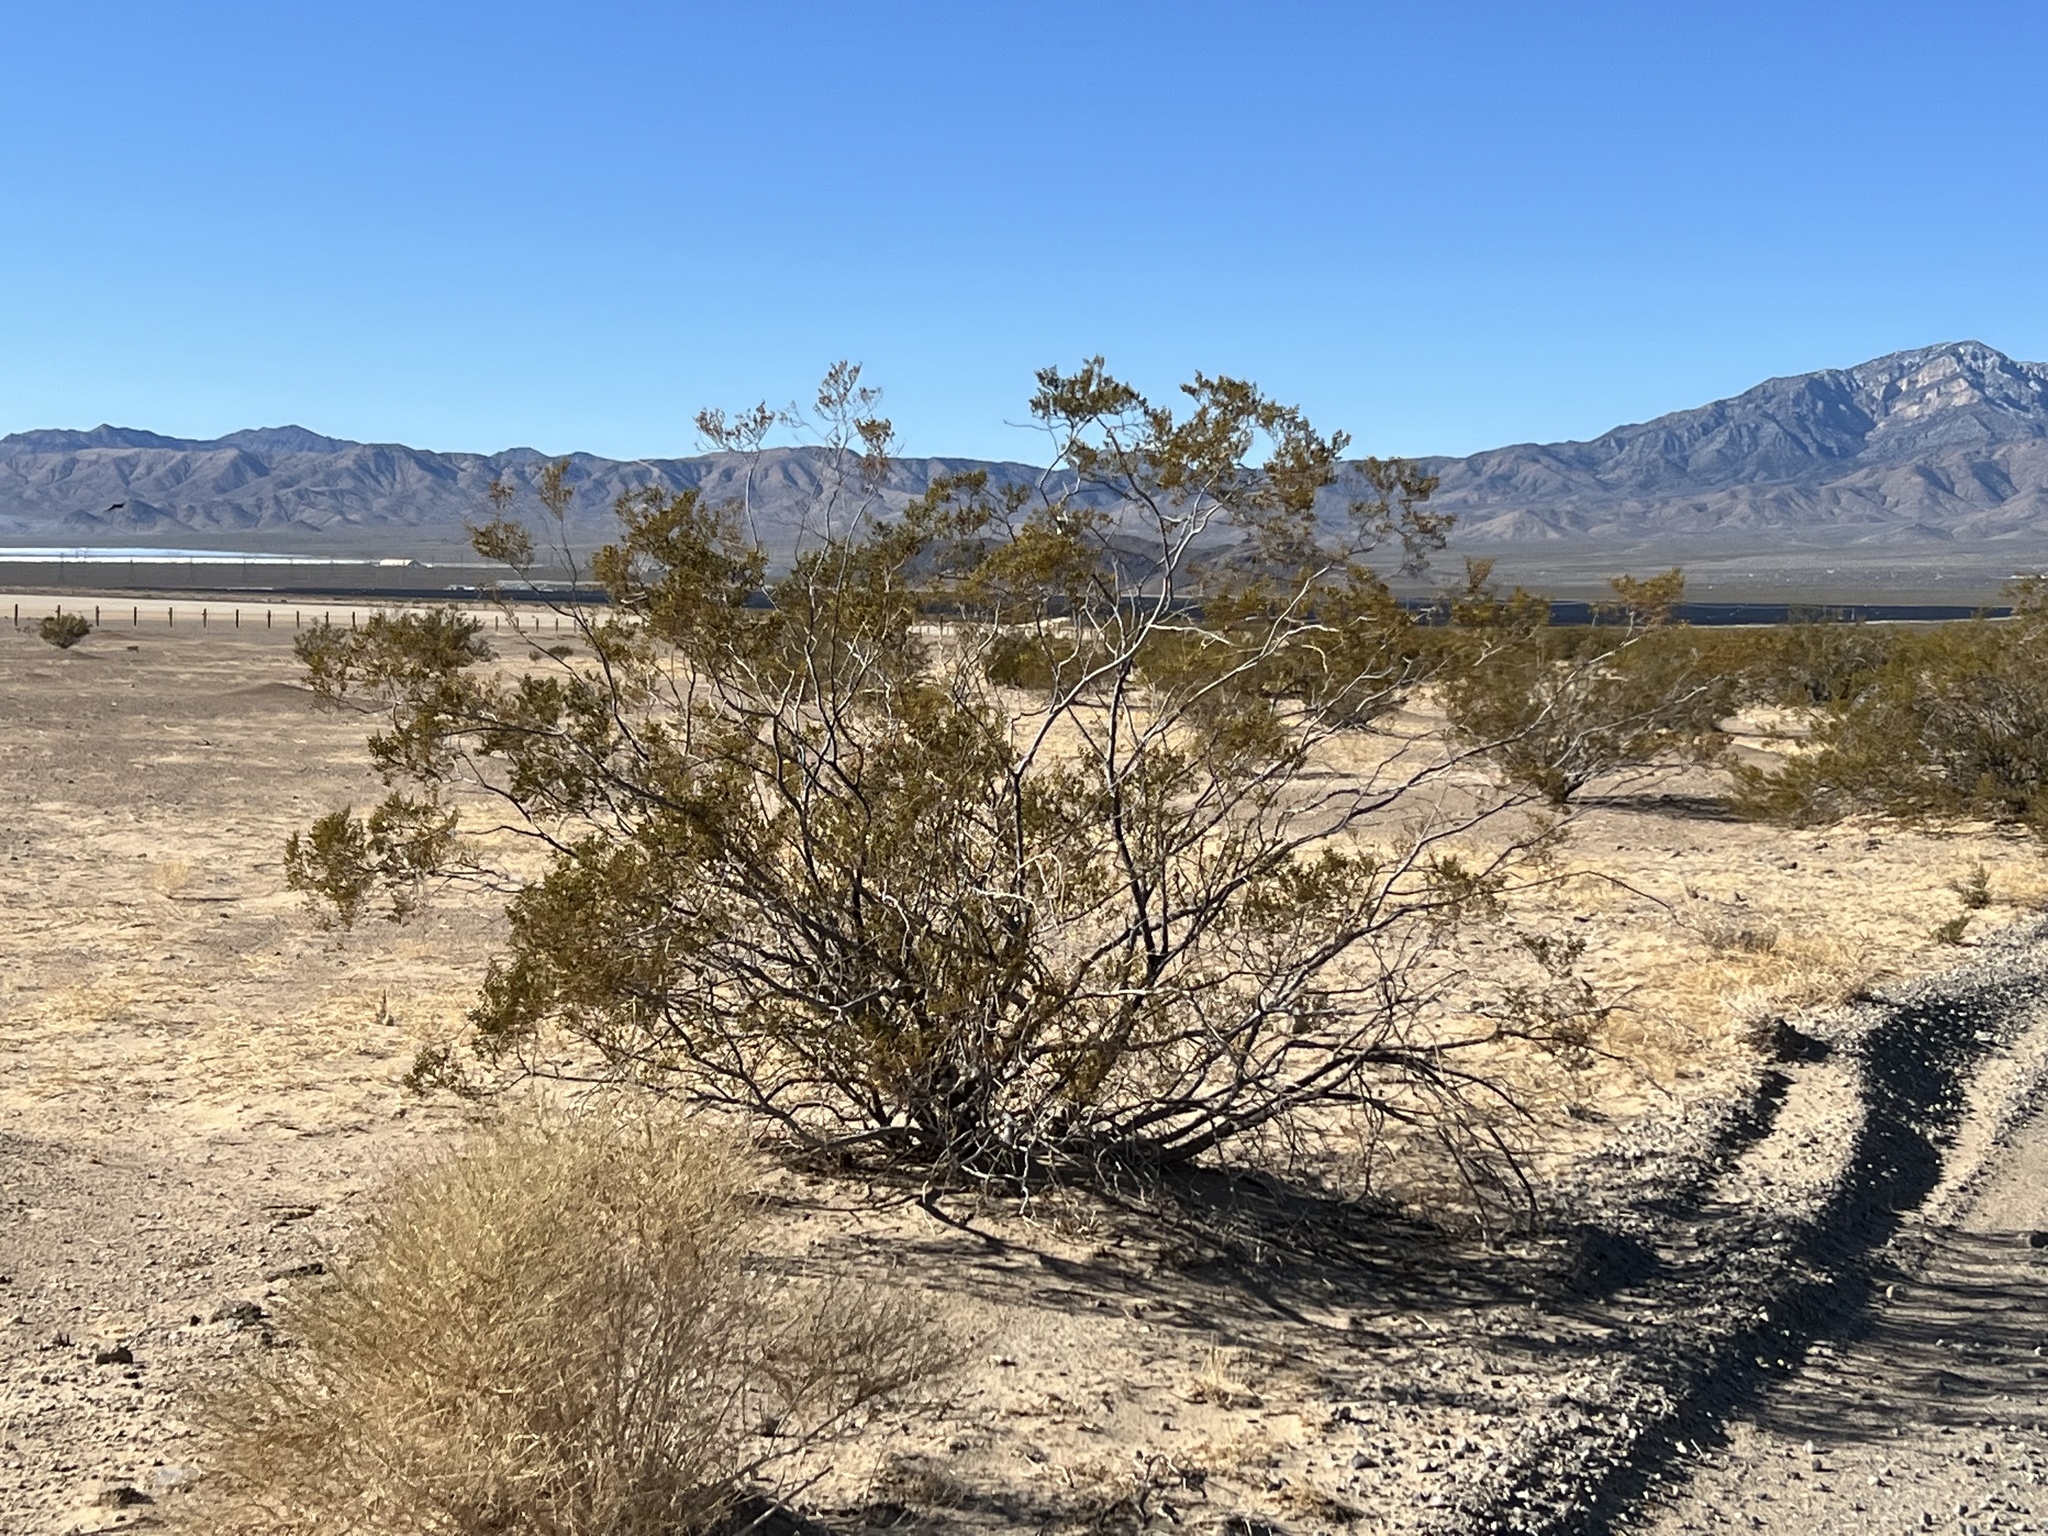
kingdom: Plantae
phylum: Tracheophyta
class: Magnoliopsida
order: Zygophyllales
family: Zygophyllaceae
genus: Larrea
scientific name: Larrea tridentata
